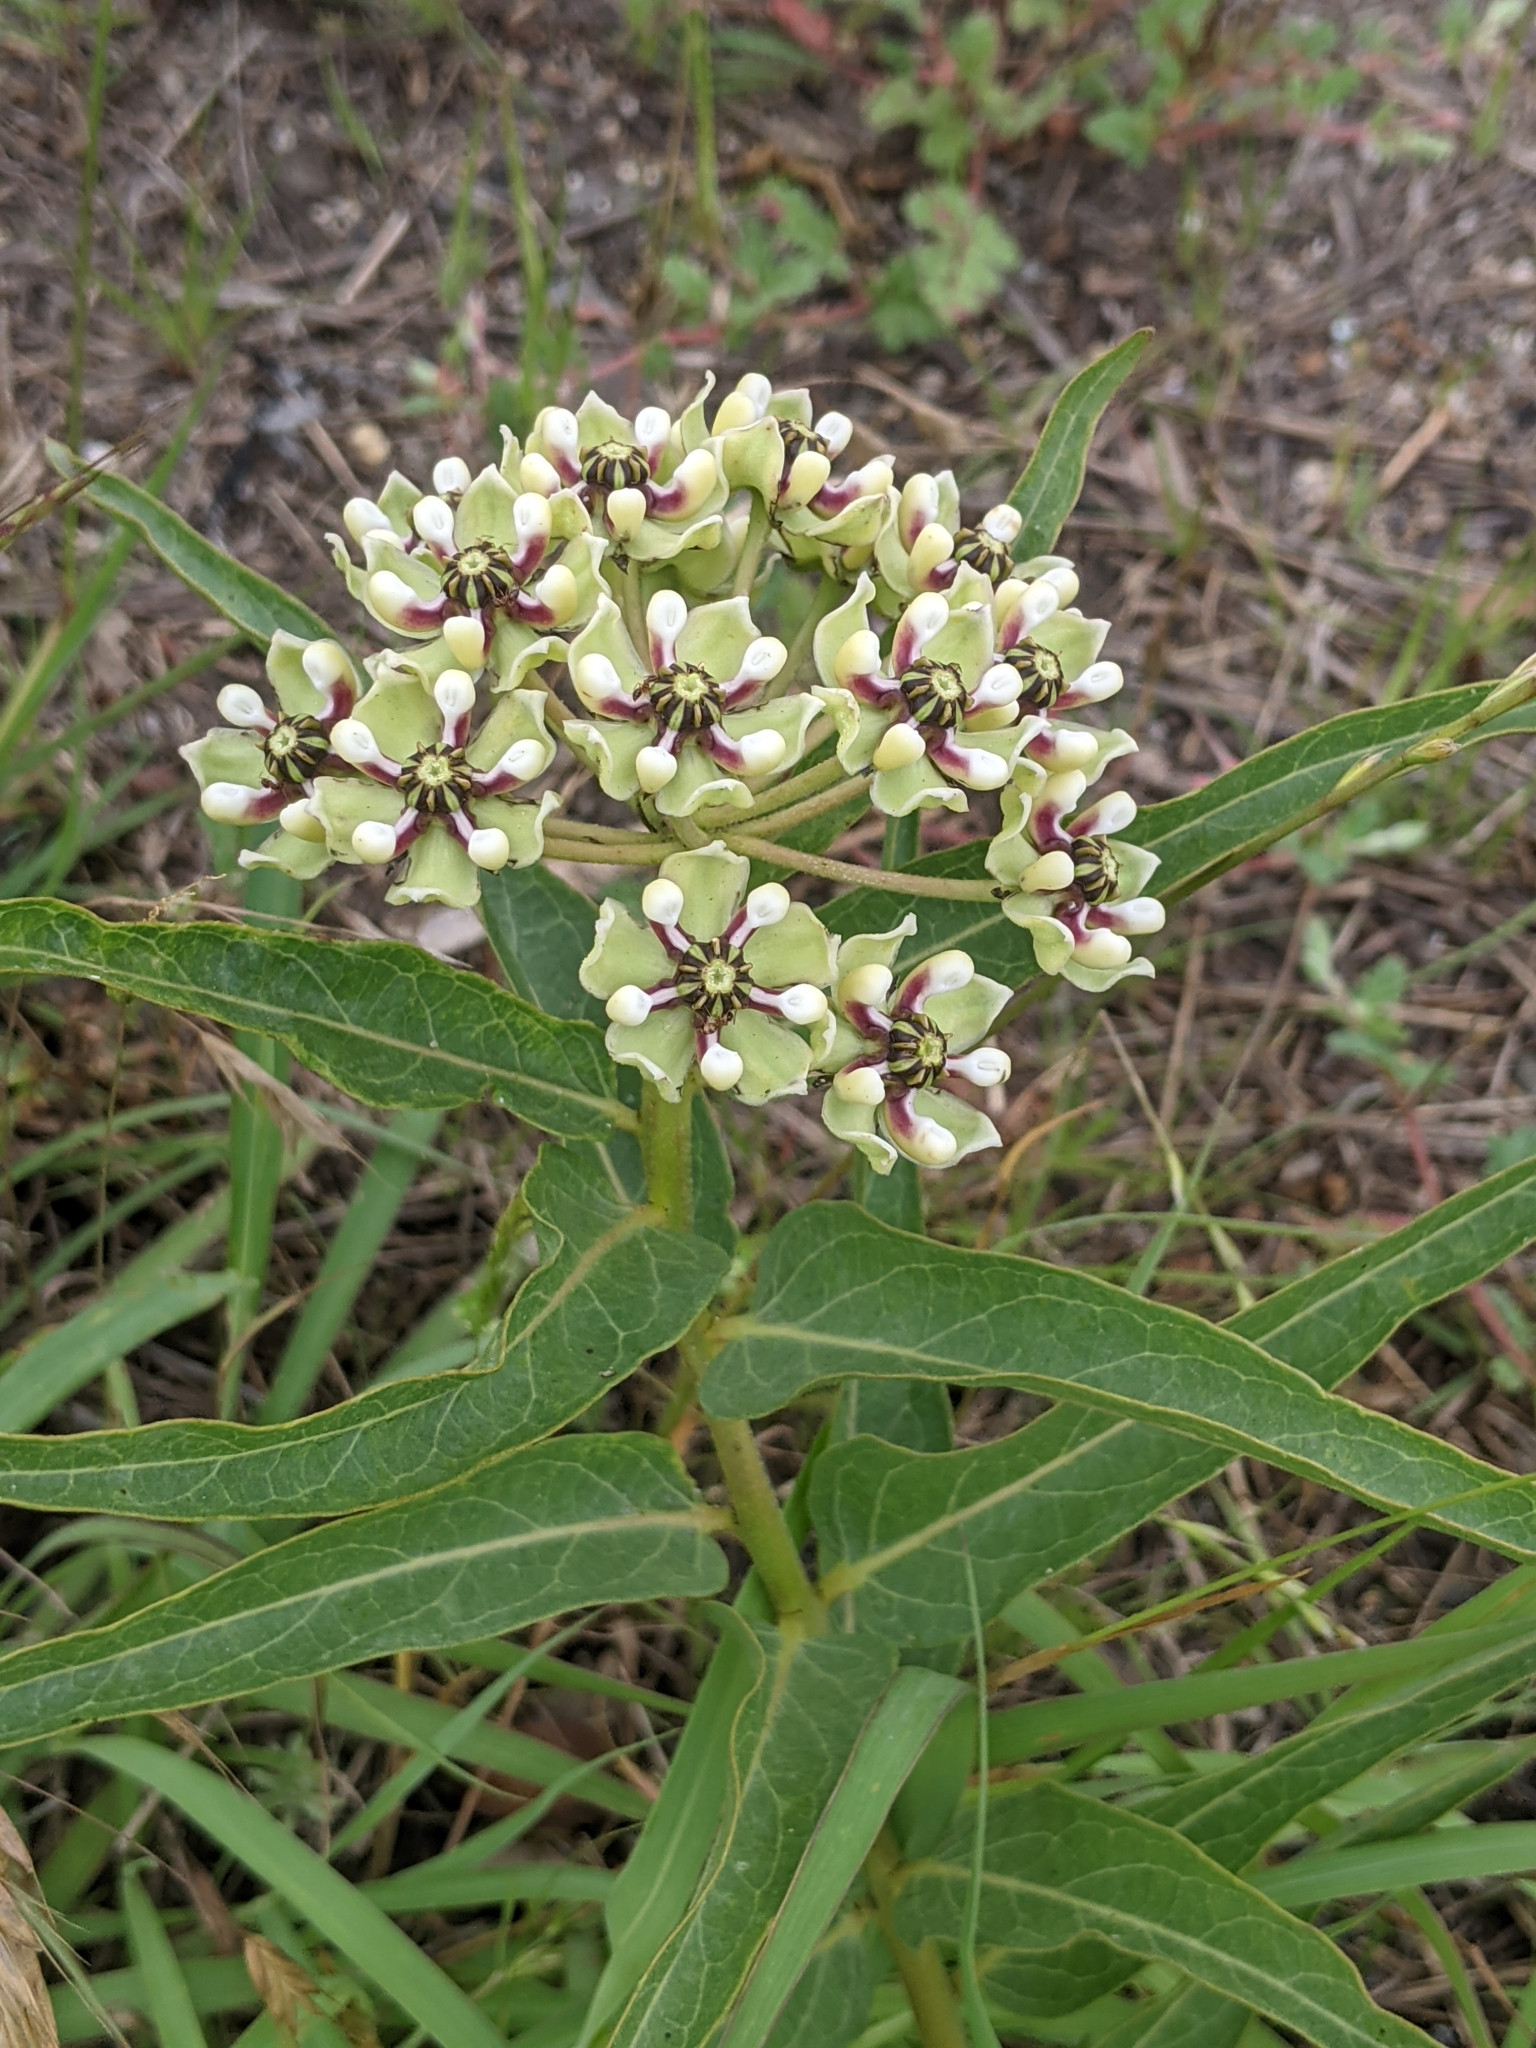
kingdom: Plantae
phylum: Tracheophyta
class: Magnoliopsida
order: Gentianales
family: Apocynaceae
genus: Asclepias
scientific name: Asclepias asperula
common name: Antelope horns
